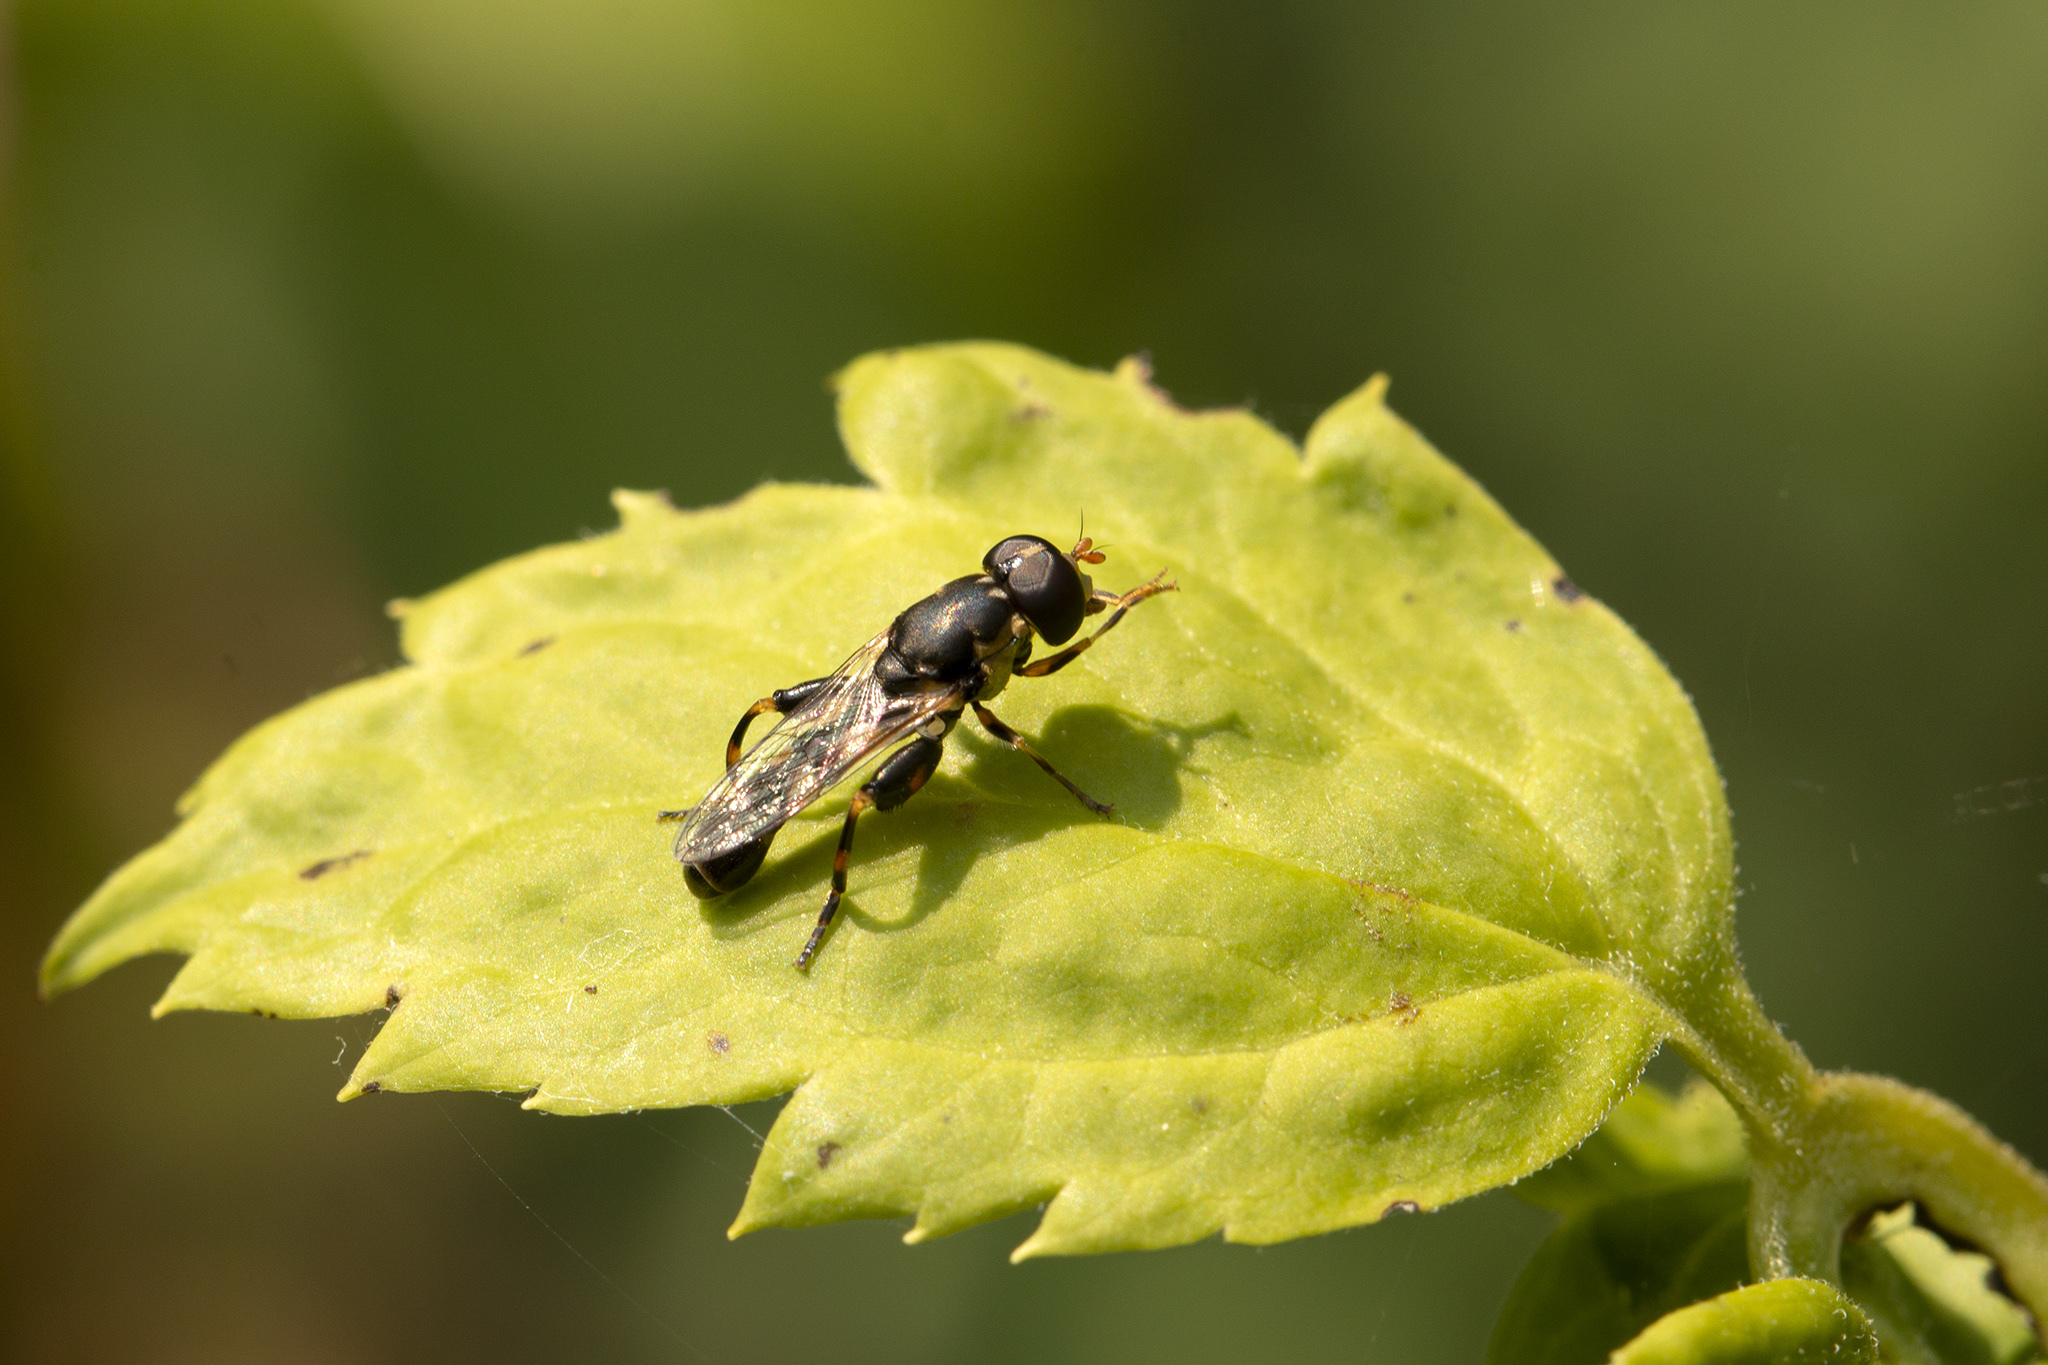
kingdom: Animalia
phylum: Arthropoda
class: Insecta
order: Diptera
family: Syrphidae
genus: Syritta
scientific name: Syritta pipiens
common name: Hover fly
